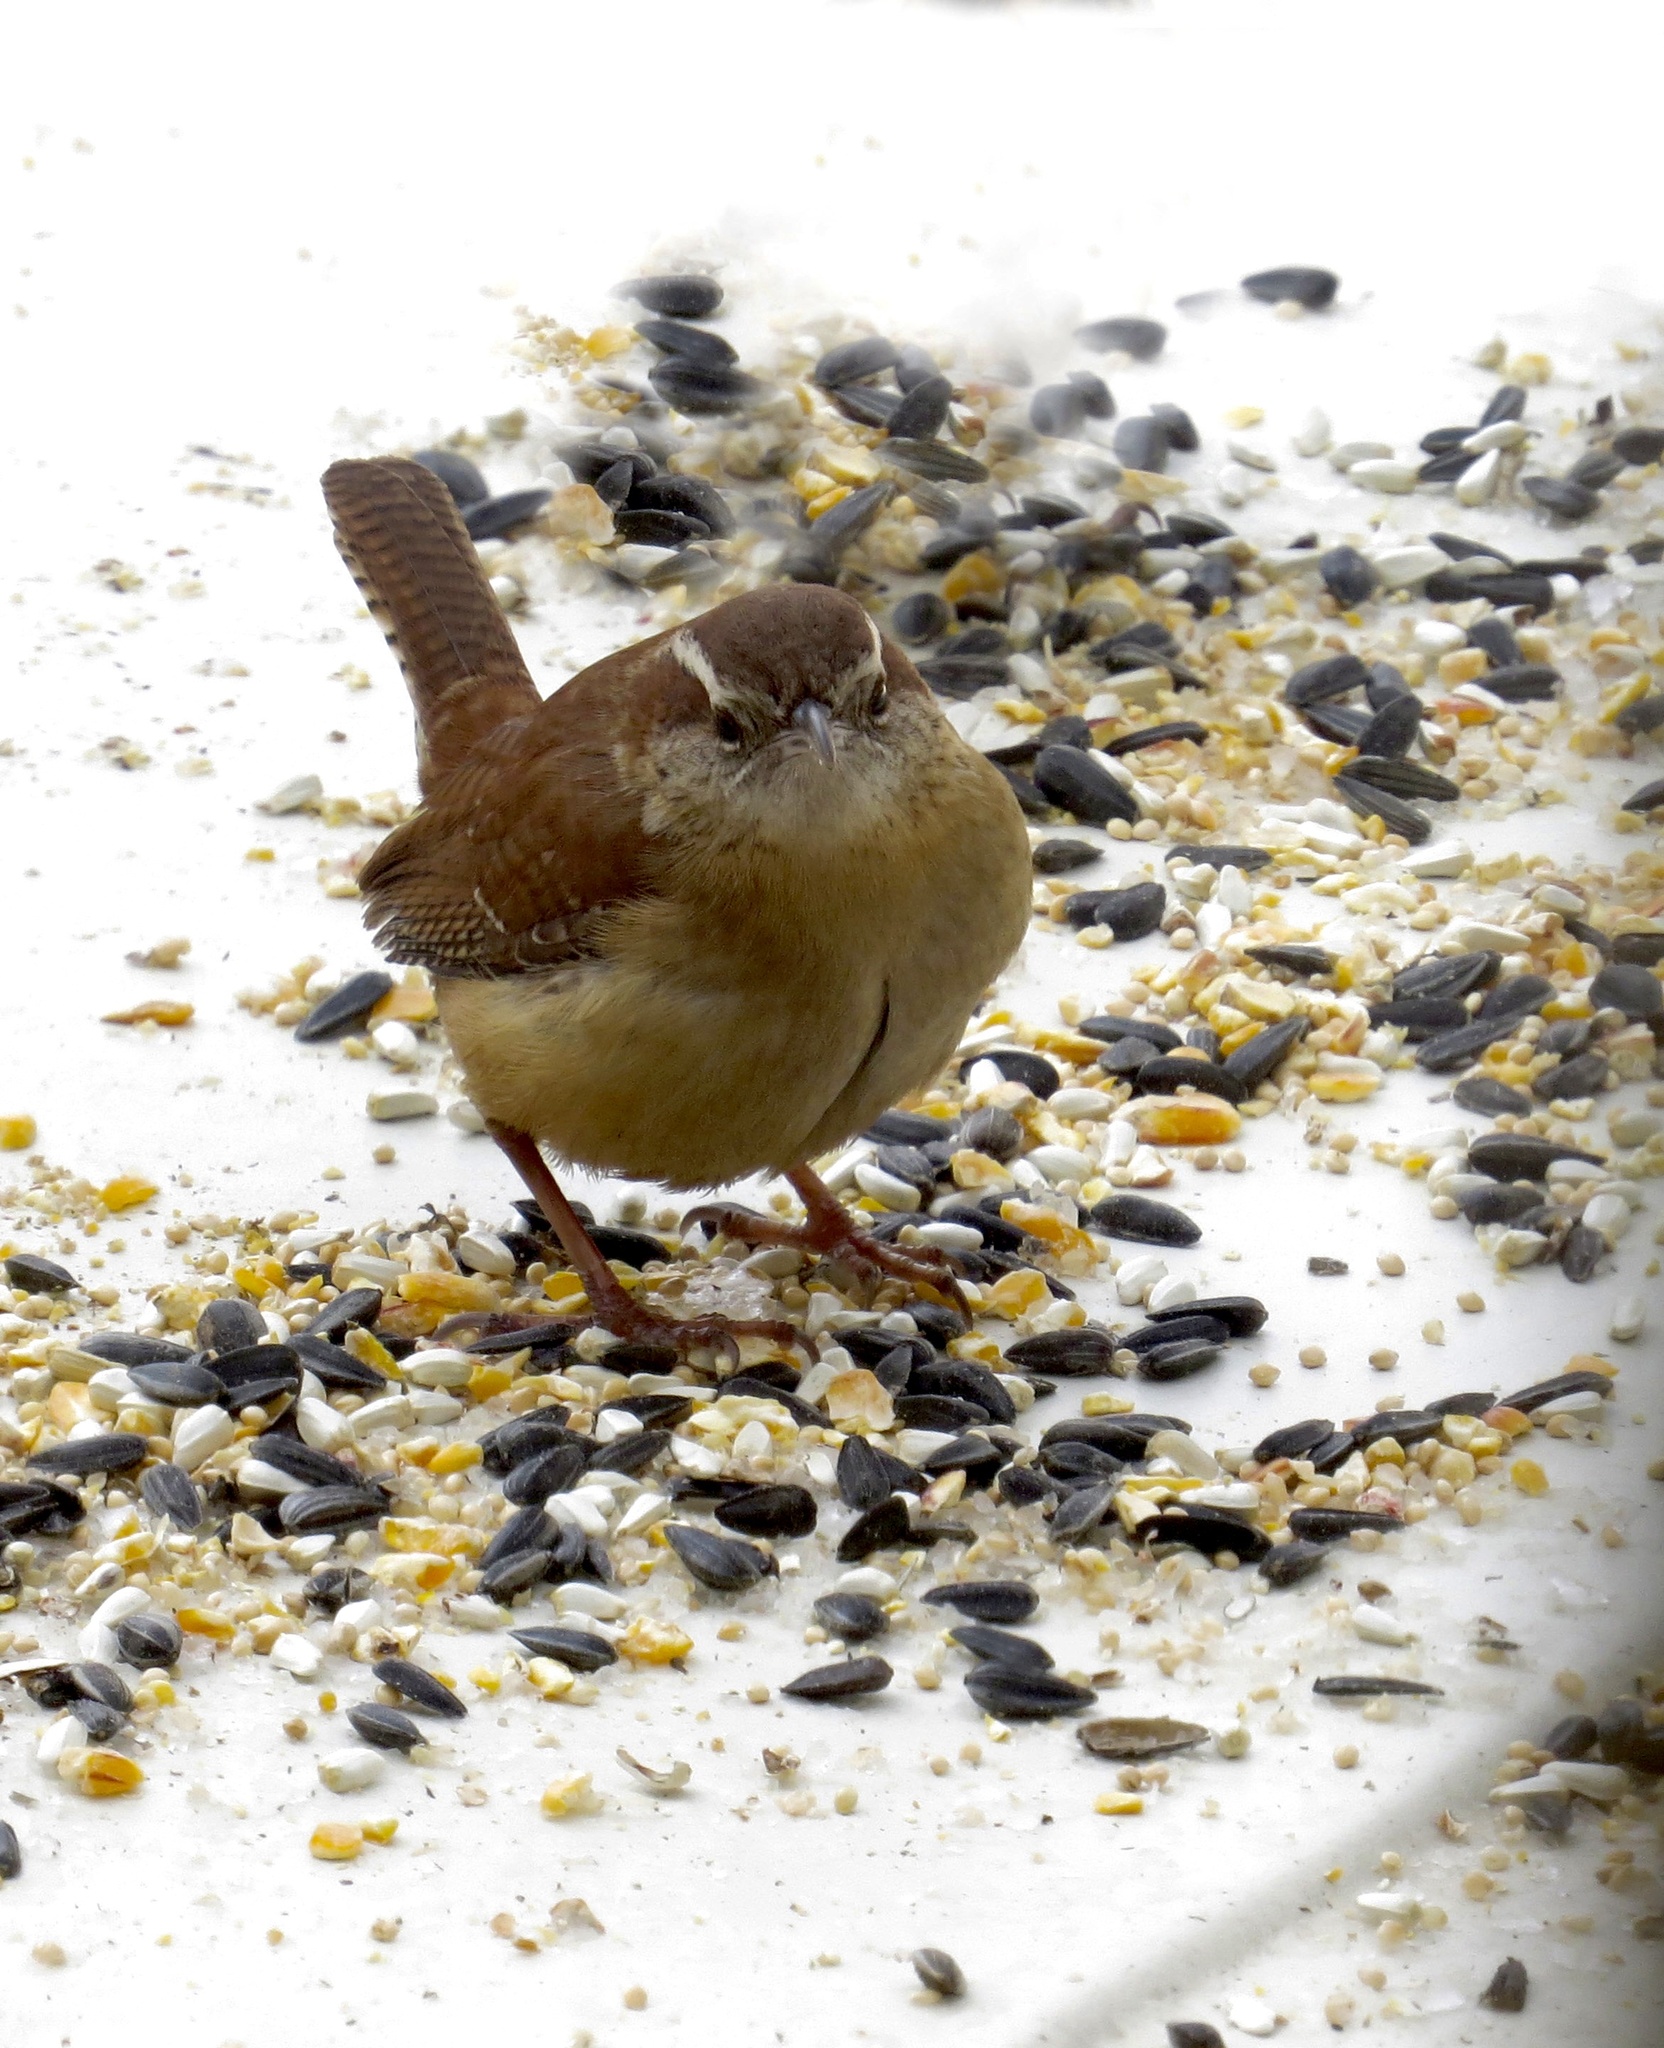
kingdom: Animalia
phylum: Chordata
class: Aves
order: Passeriformes
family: Troglodytidae
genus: Thryothorus
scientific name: Thryothorus ludovicianus
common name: Carolina wren
